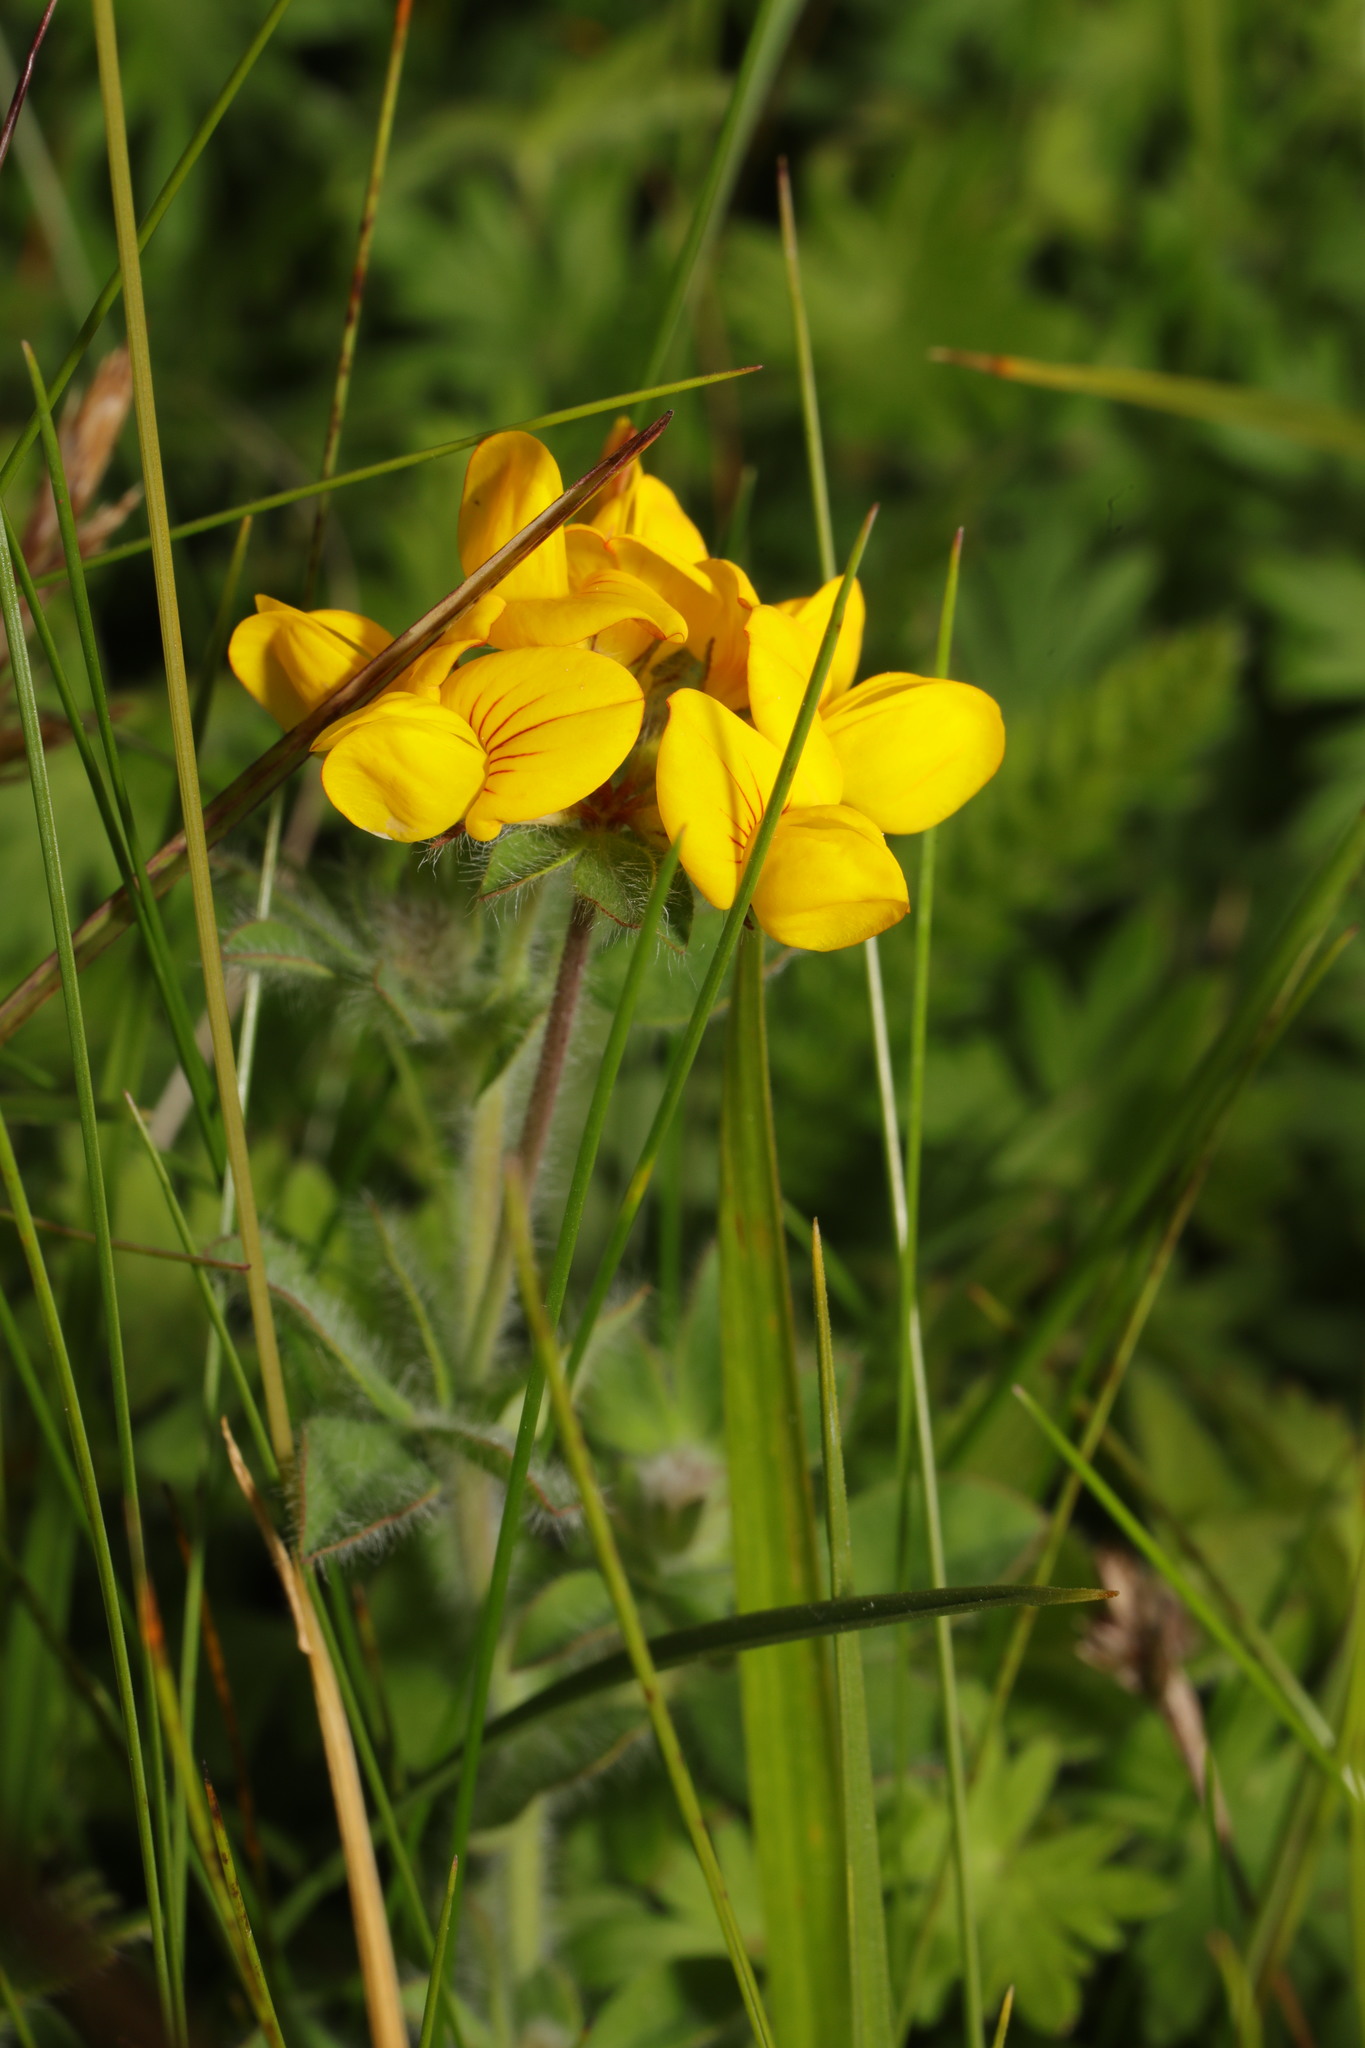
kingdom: Plantae
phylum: Tracheophyta
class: Magnoliopsida
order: Fabales
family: Fabaceae
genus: Lotus
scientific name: Lotus pedunculatus
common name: Greater birdsfoot-trefoil
